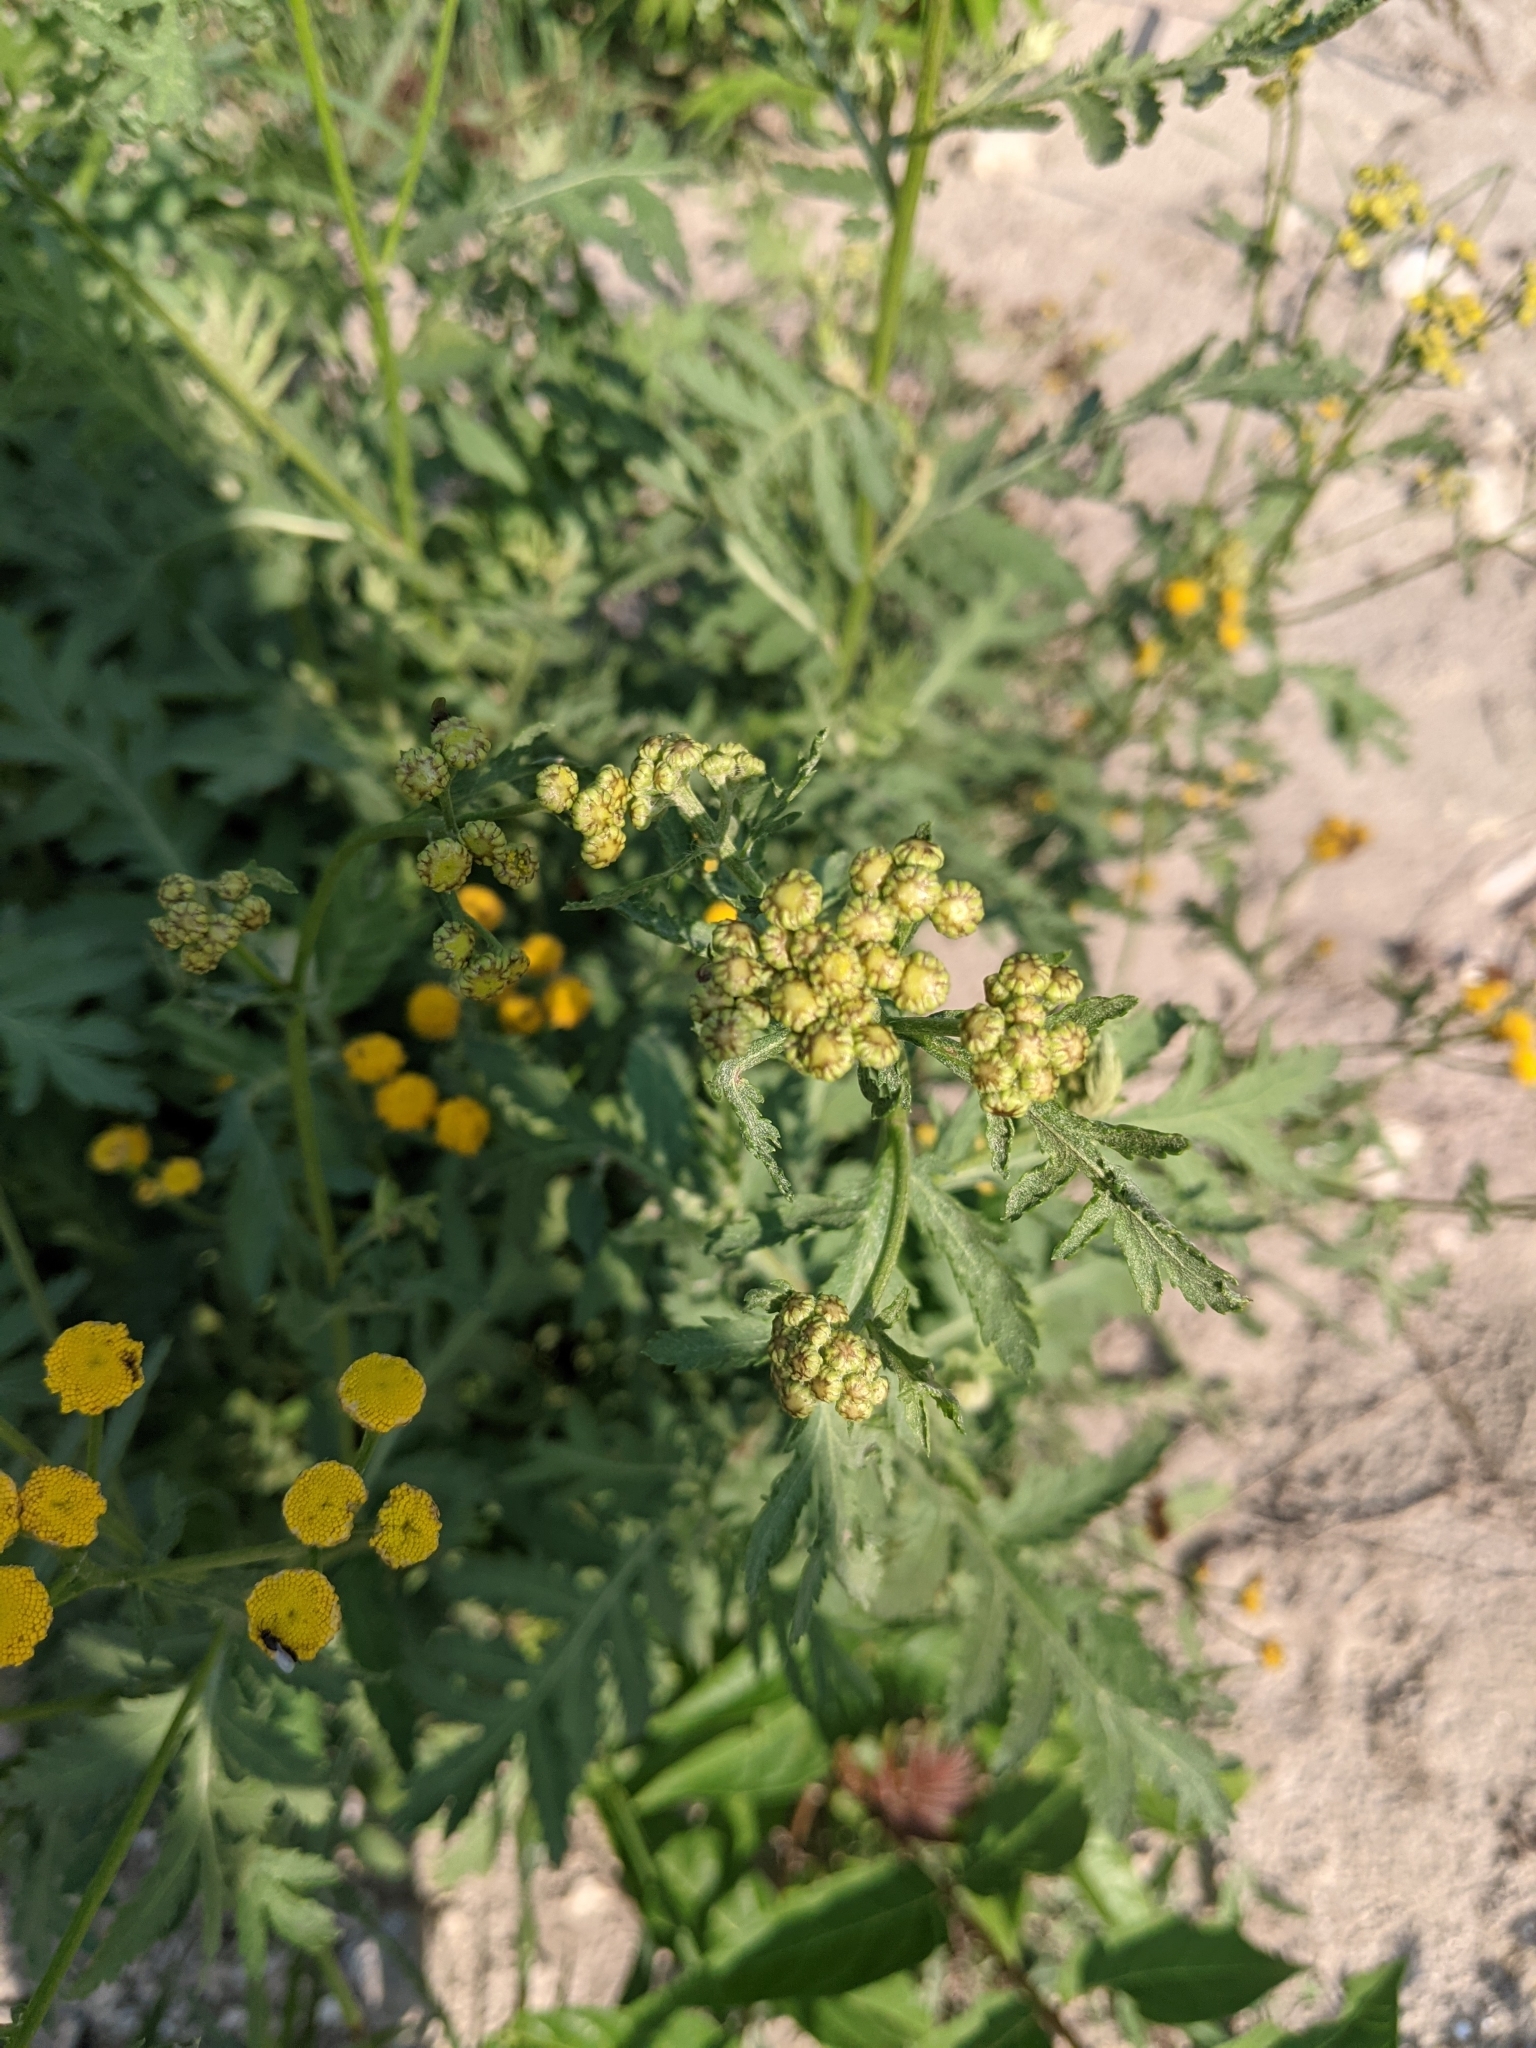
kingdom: Plantae
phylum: Tracheophyta
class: Magnoliopsida
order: Asterales
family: Asteraceae
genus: Tanacetum
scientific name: Tanacetum vulgare
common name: Common tansy
